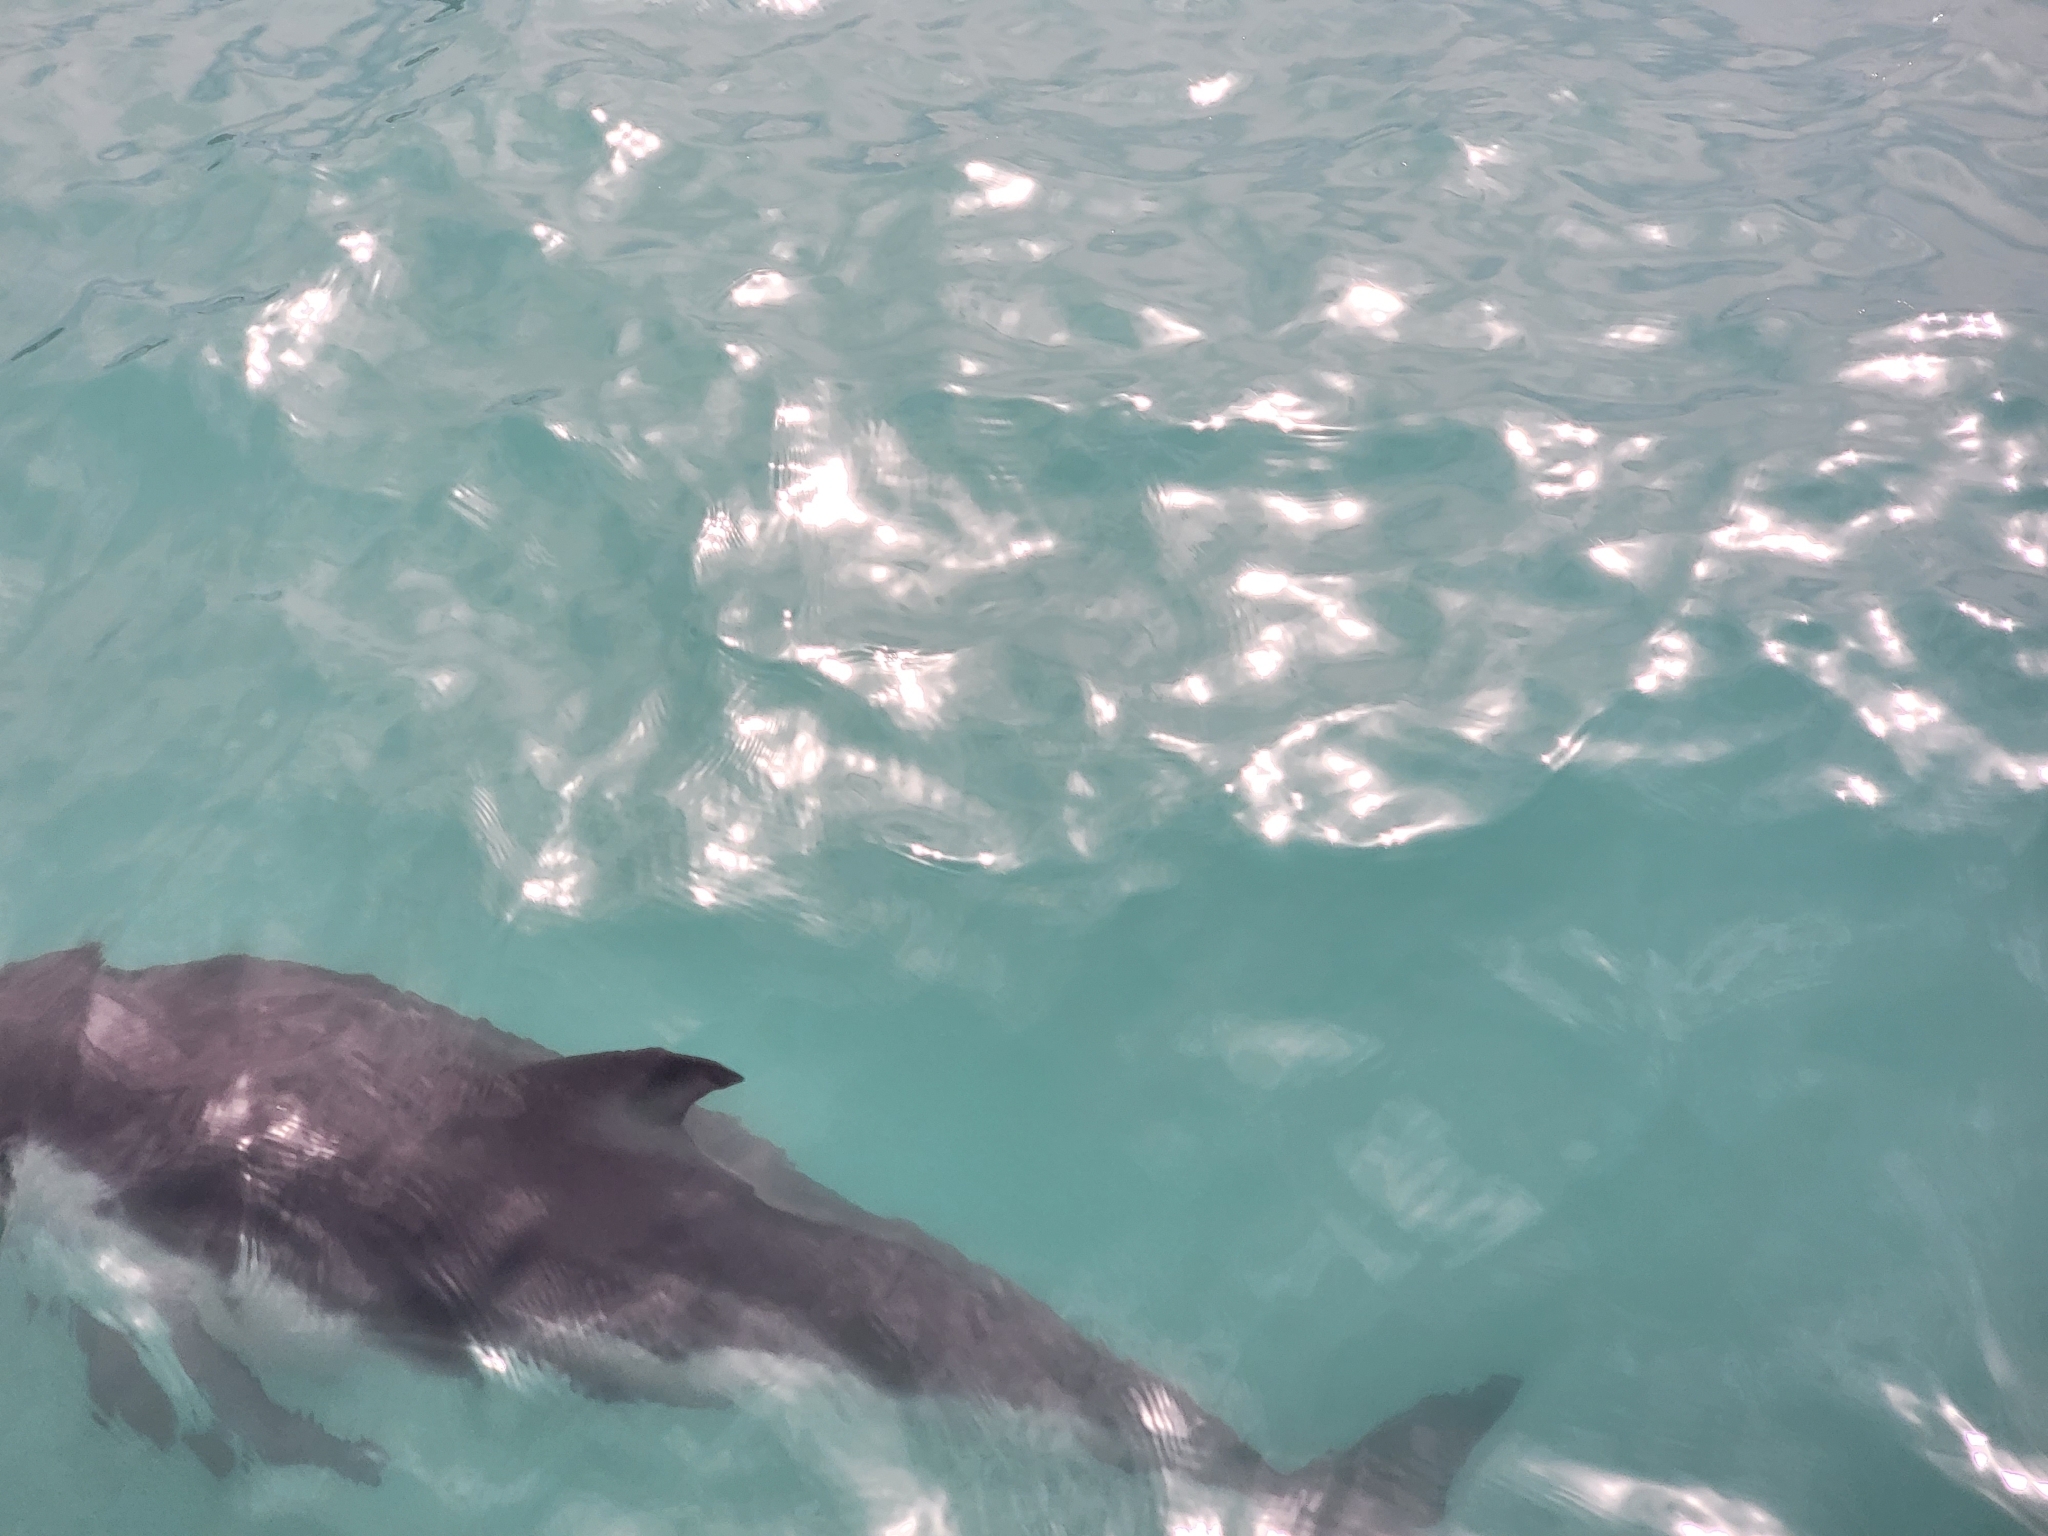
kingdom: Animalia
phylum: Chordata
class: Mammalia
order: Cetacea
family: Delphinidae
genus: Lagenorhynchus
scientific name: Lagenorhynchus obscurus
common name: Dusky dolphin
